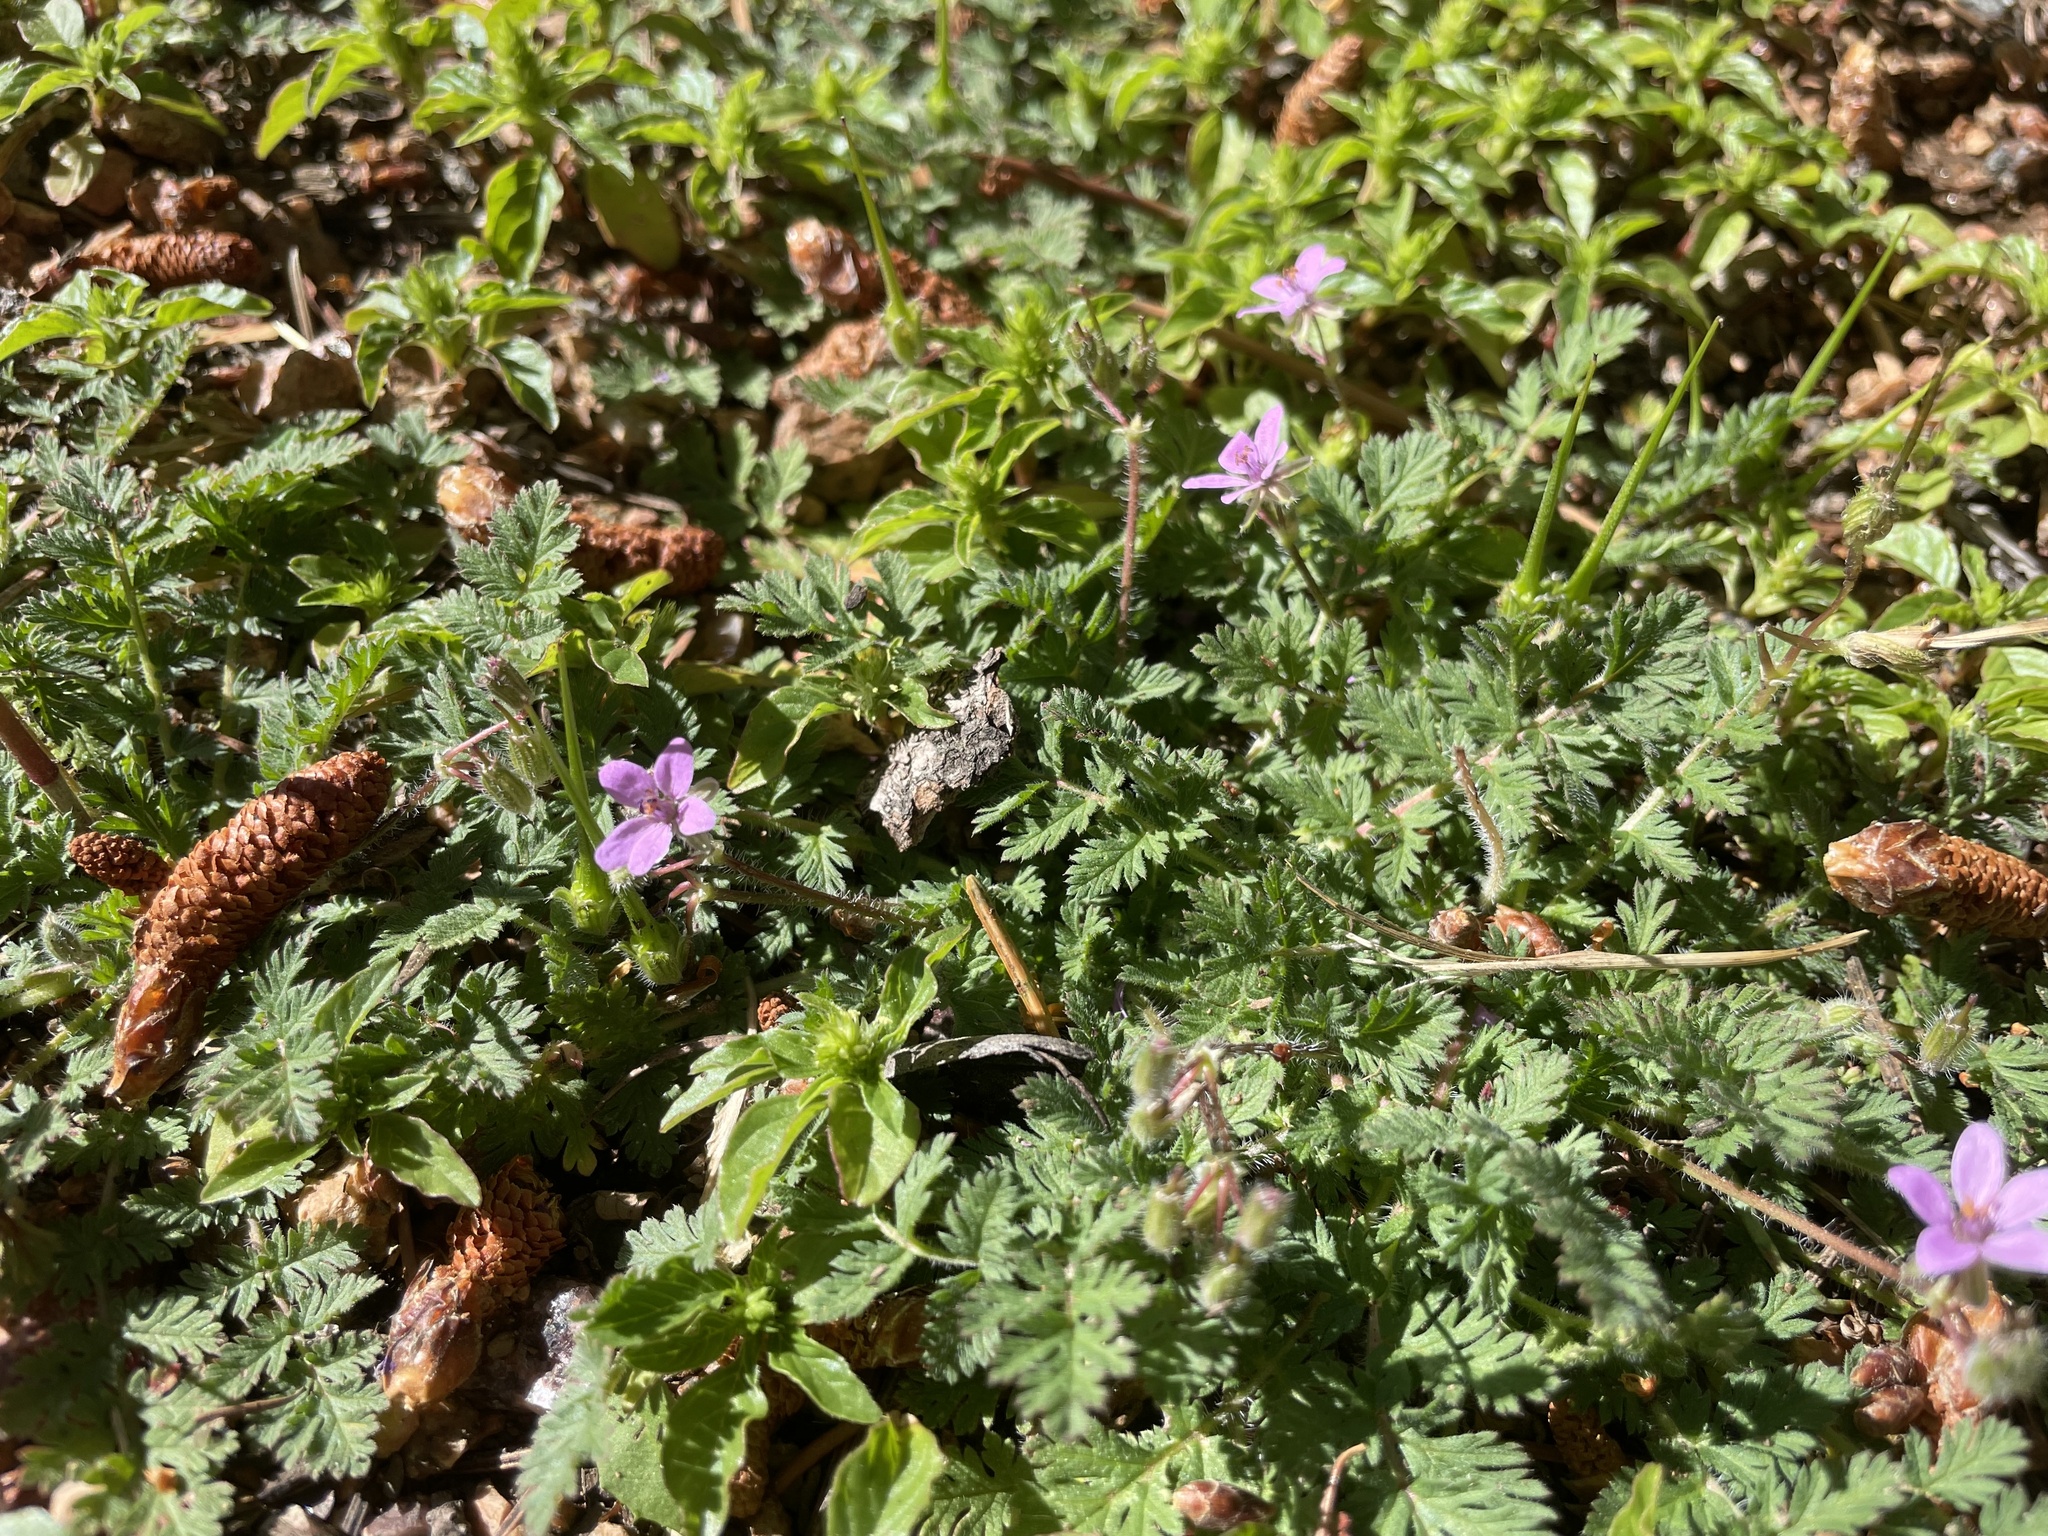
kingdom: Plantae
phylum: Tracheophyta
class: Magnoliopsida
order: Geraniales
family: Geraniaceae
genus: Erodium
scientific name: Erodium cicutarium
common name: Common stork's-bill
